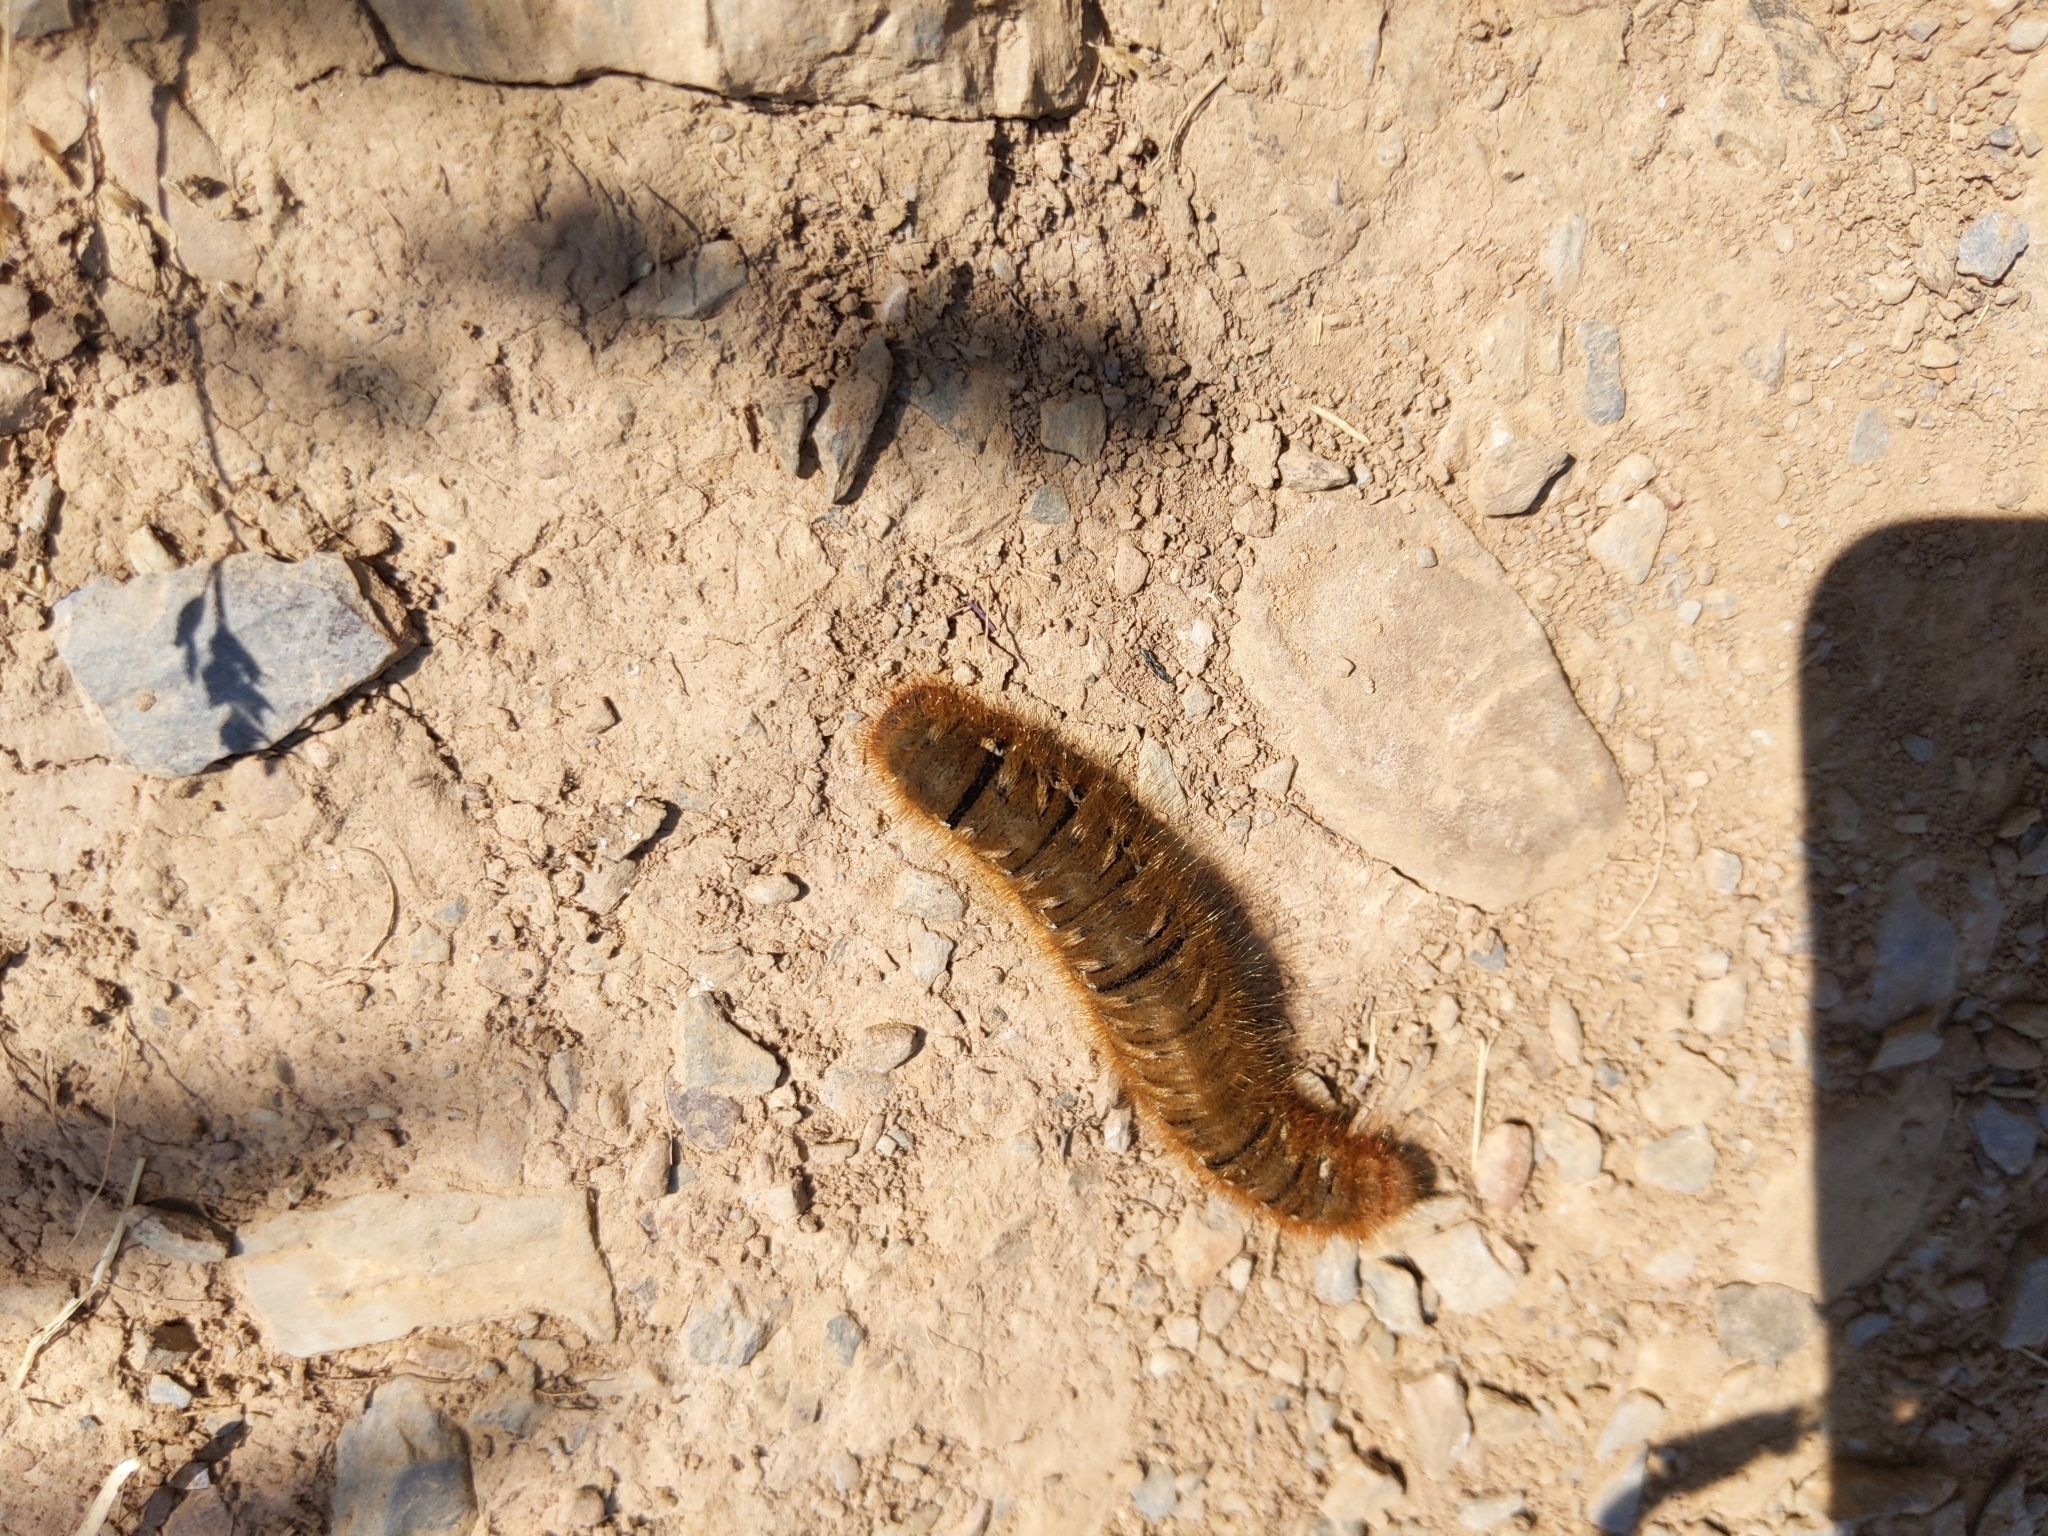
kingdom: Animalia
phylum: Arthropoda
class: Insecta
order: Lepidoptera
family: Lasiocampidae
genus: Lasiocampa
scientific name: Lasiocampa quercus
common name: Oak eggar
